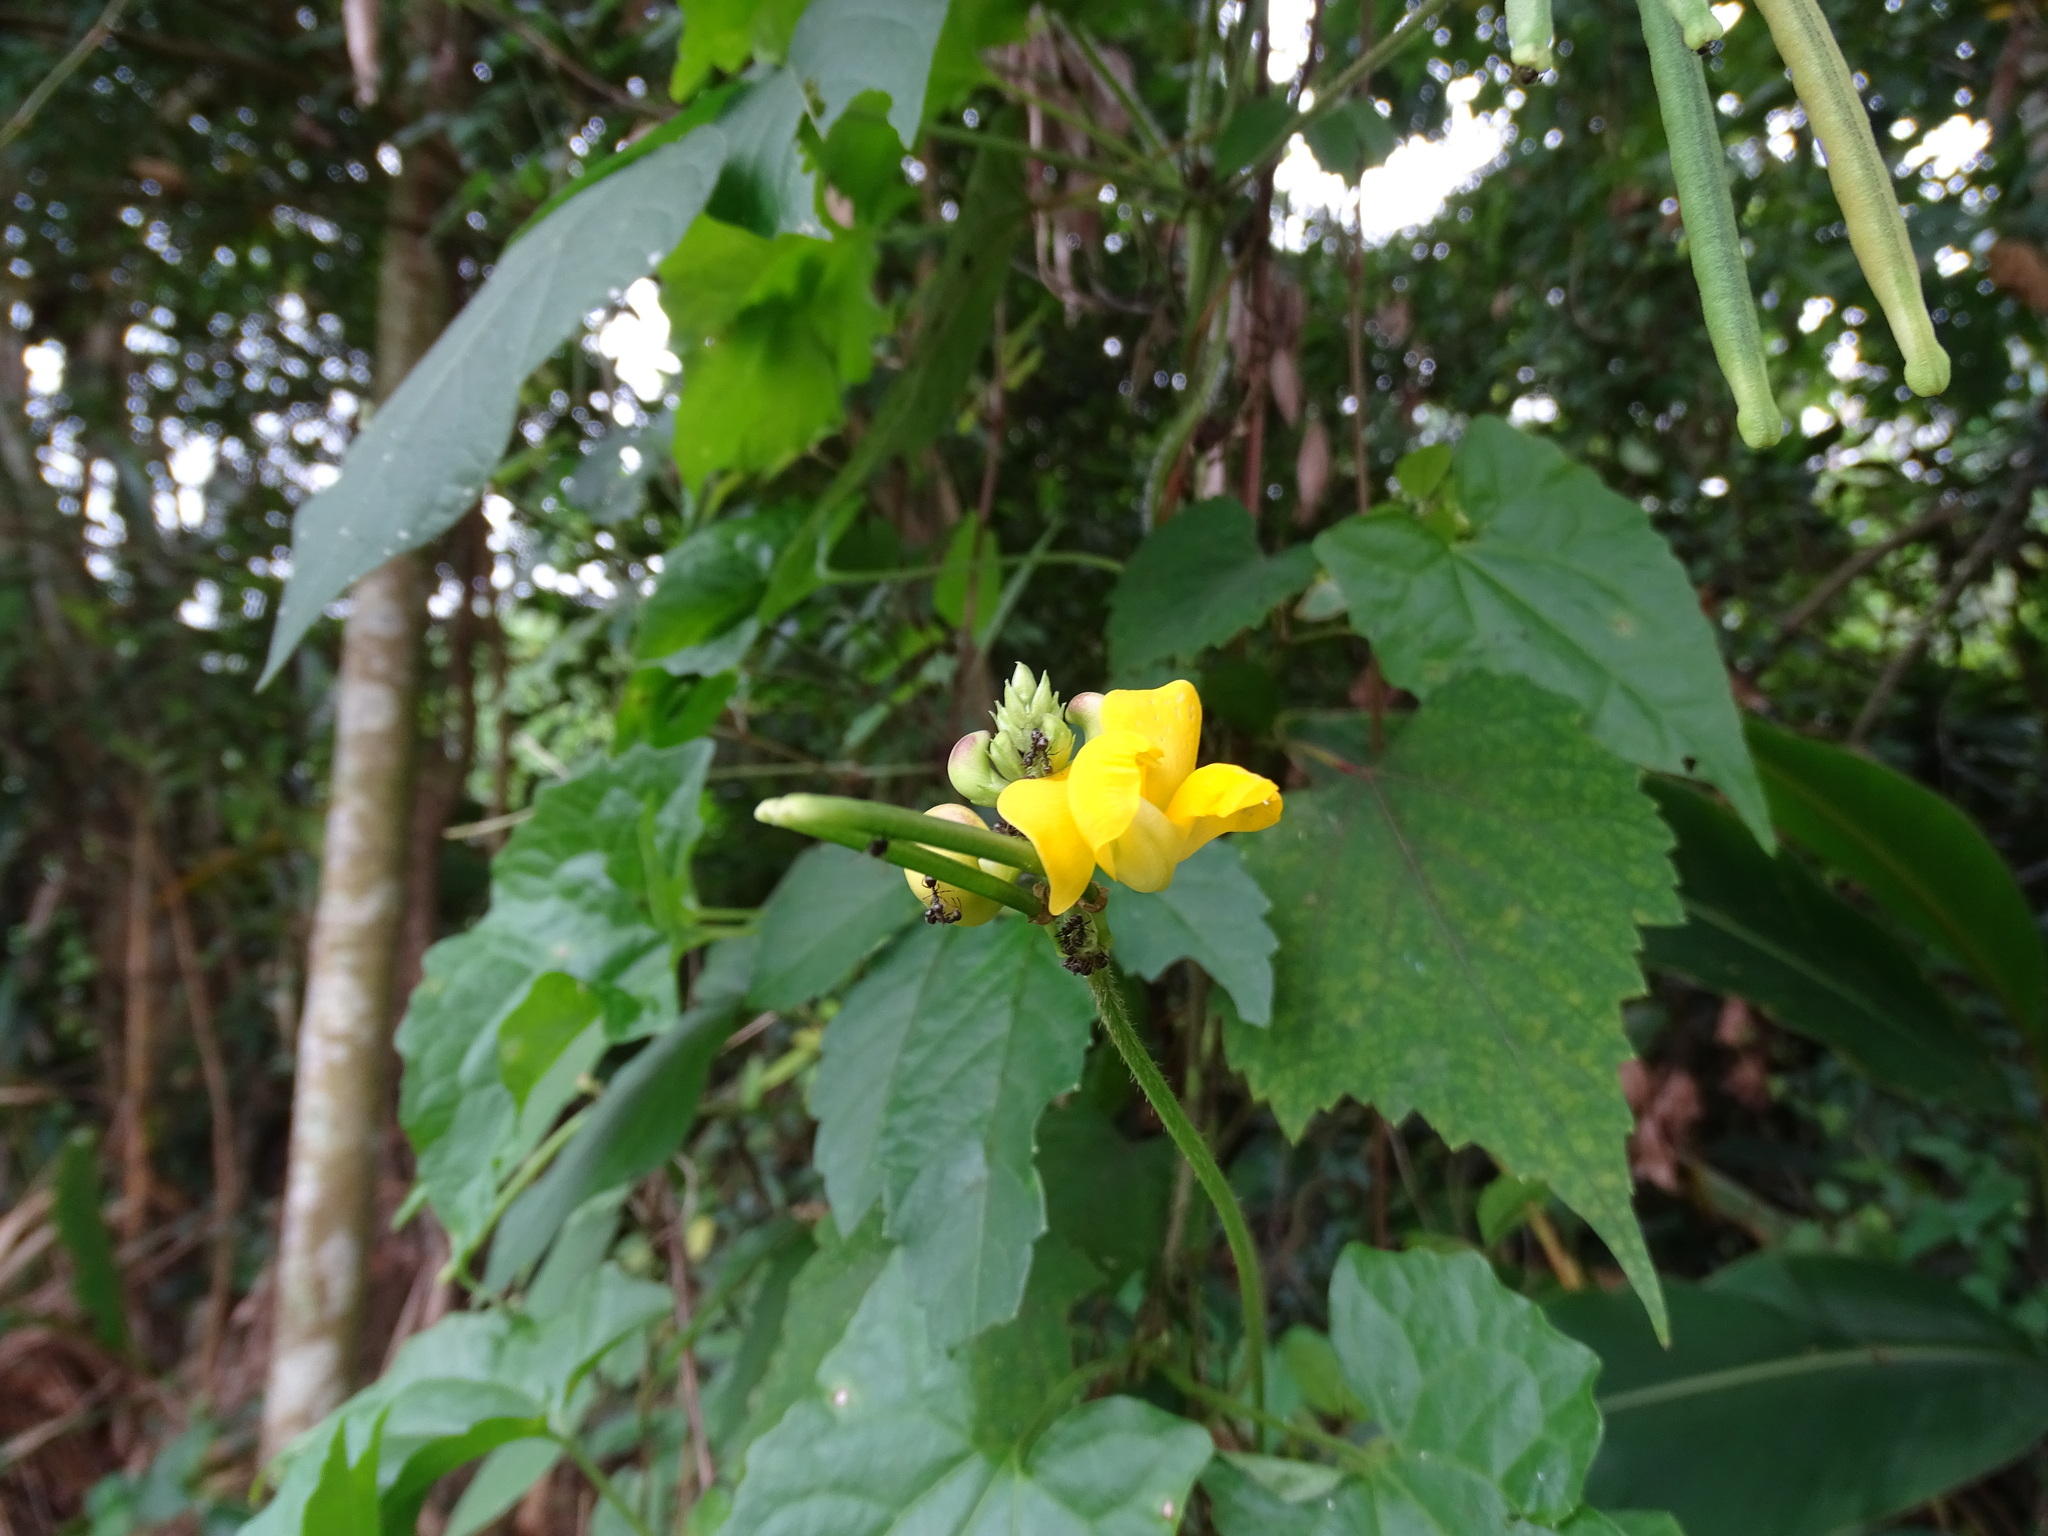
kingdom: Plantae
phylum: Tracheophyta
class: Magnoliopsida
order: Fabales
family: Fabaceae
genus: Vigna
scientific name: Vigna reflexopilosa
